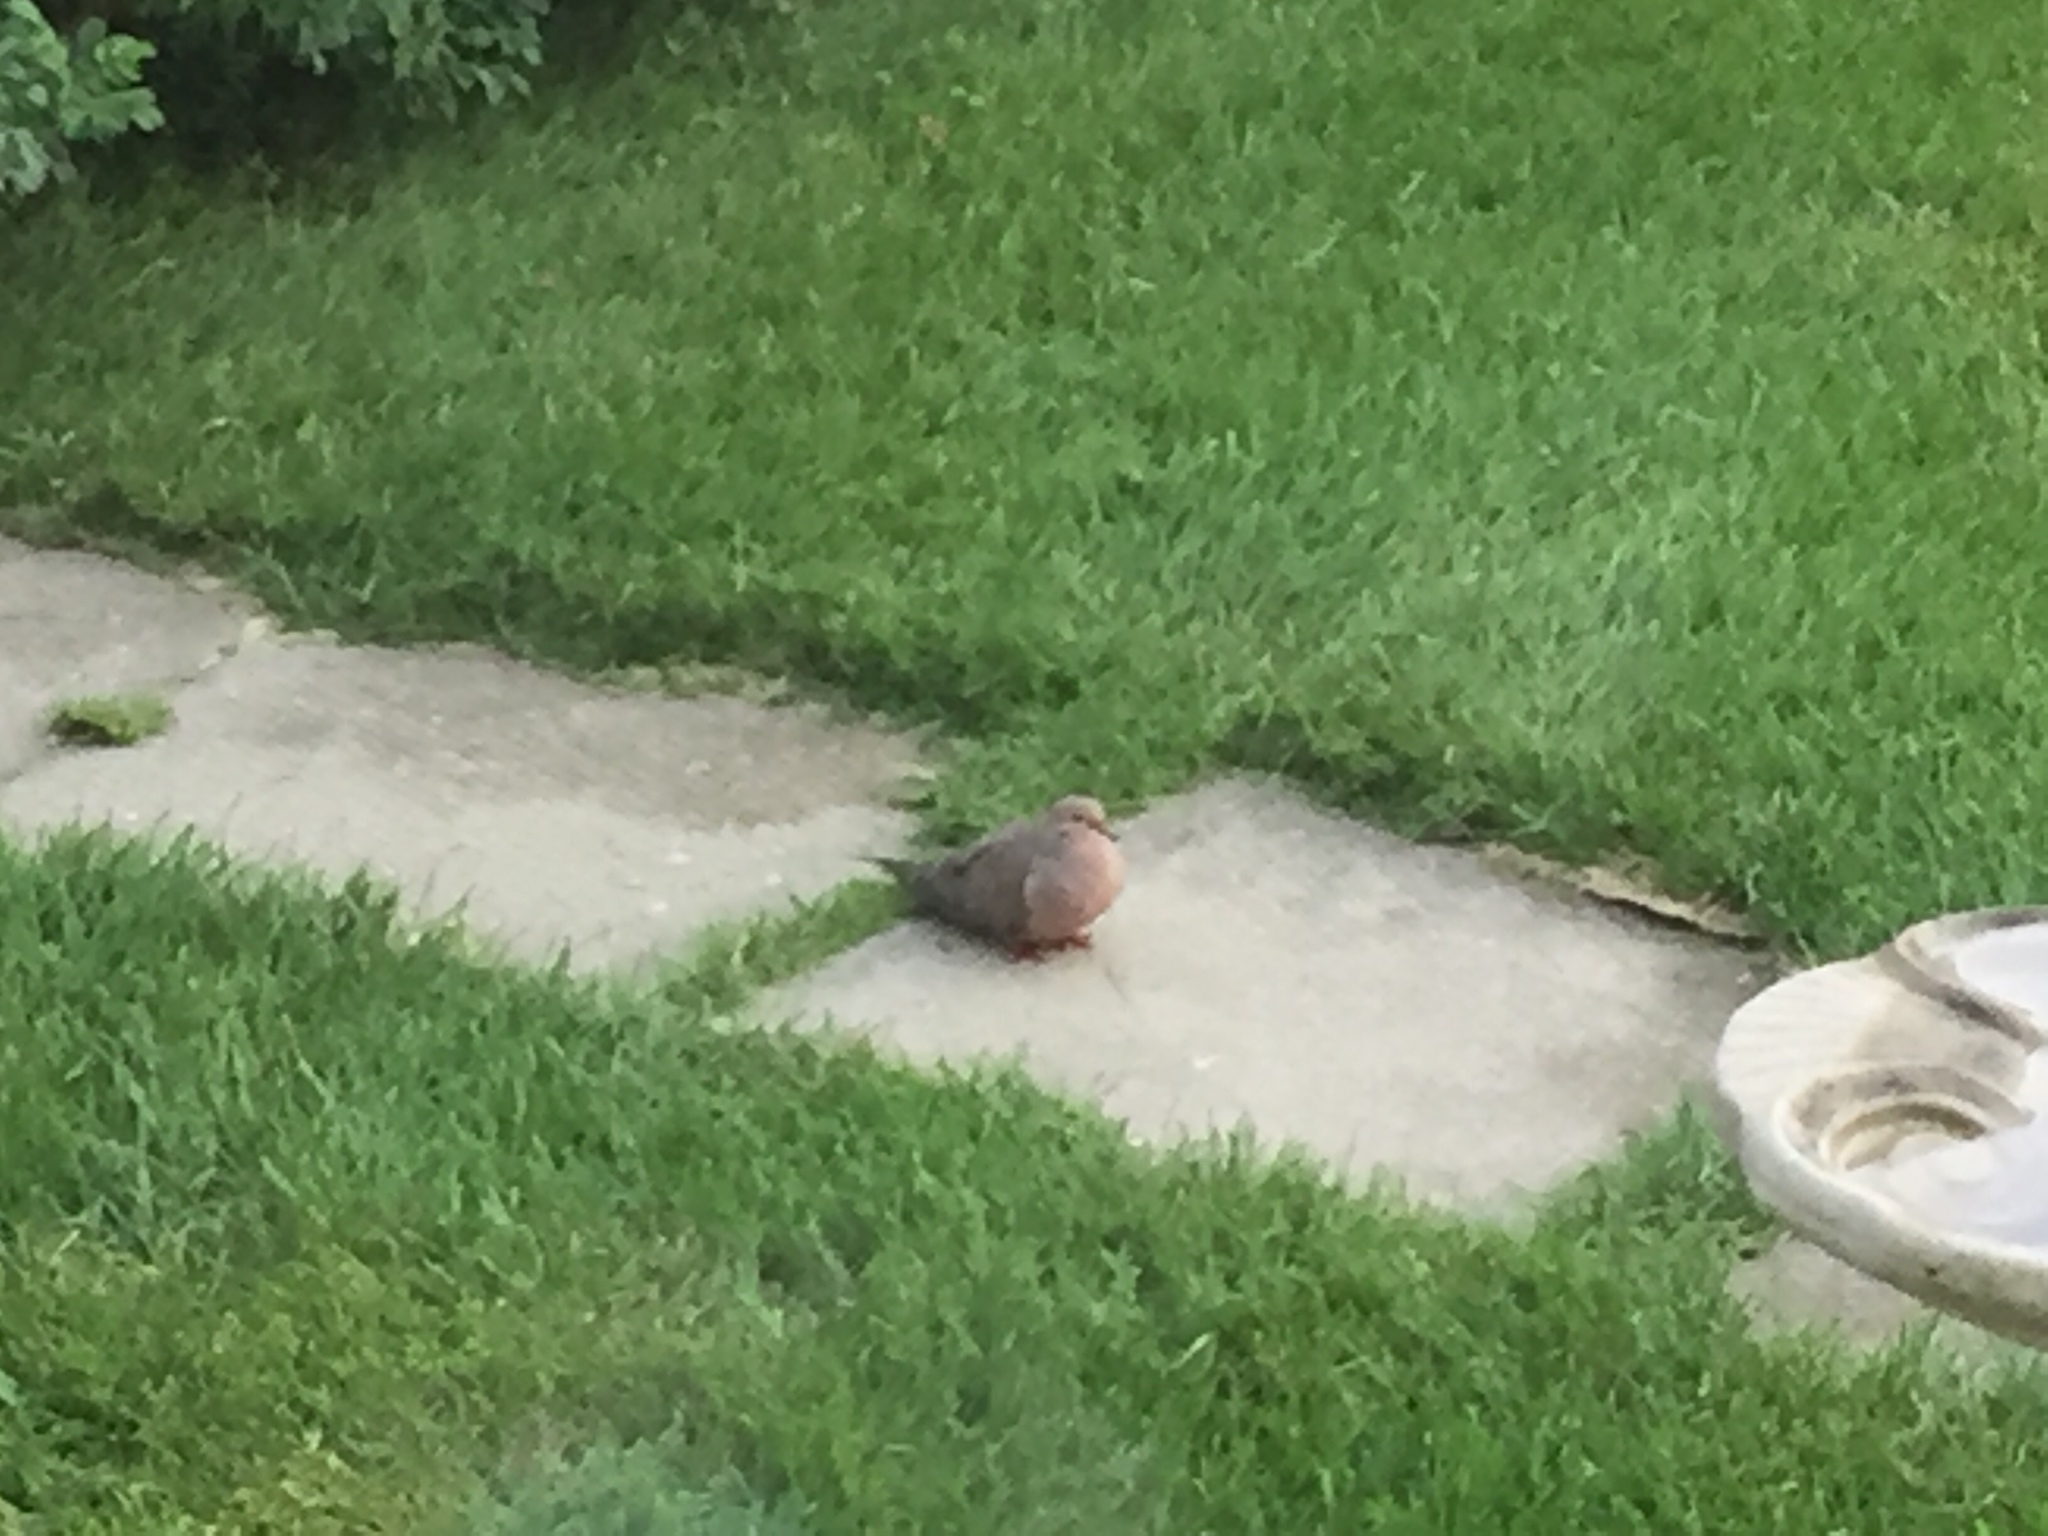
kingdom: Animalia
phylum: Chordata
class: Aves
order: Columbiformes
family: Columbidae
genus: Zenaida
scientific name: Zenaida macroura
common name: Mourning dove
